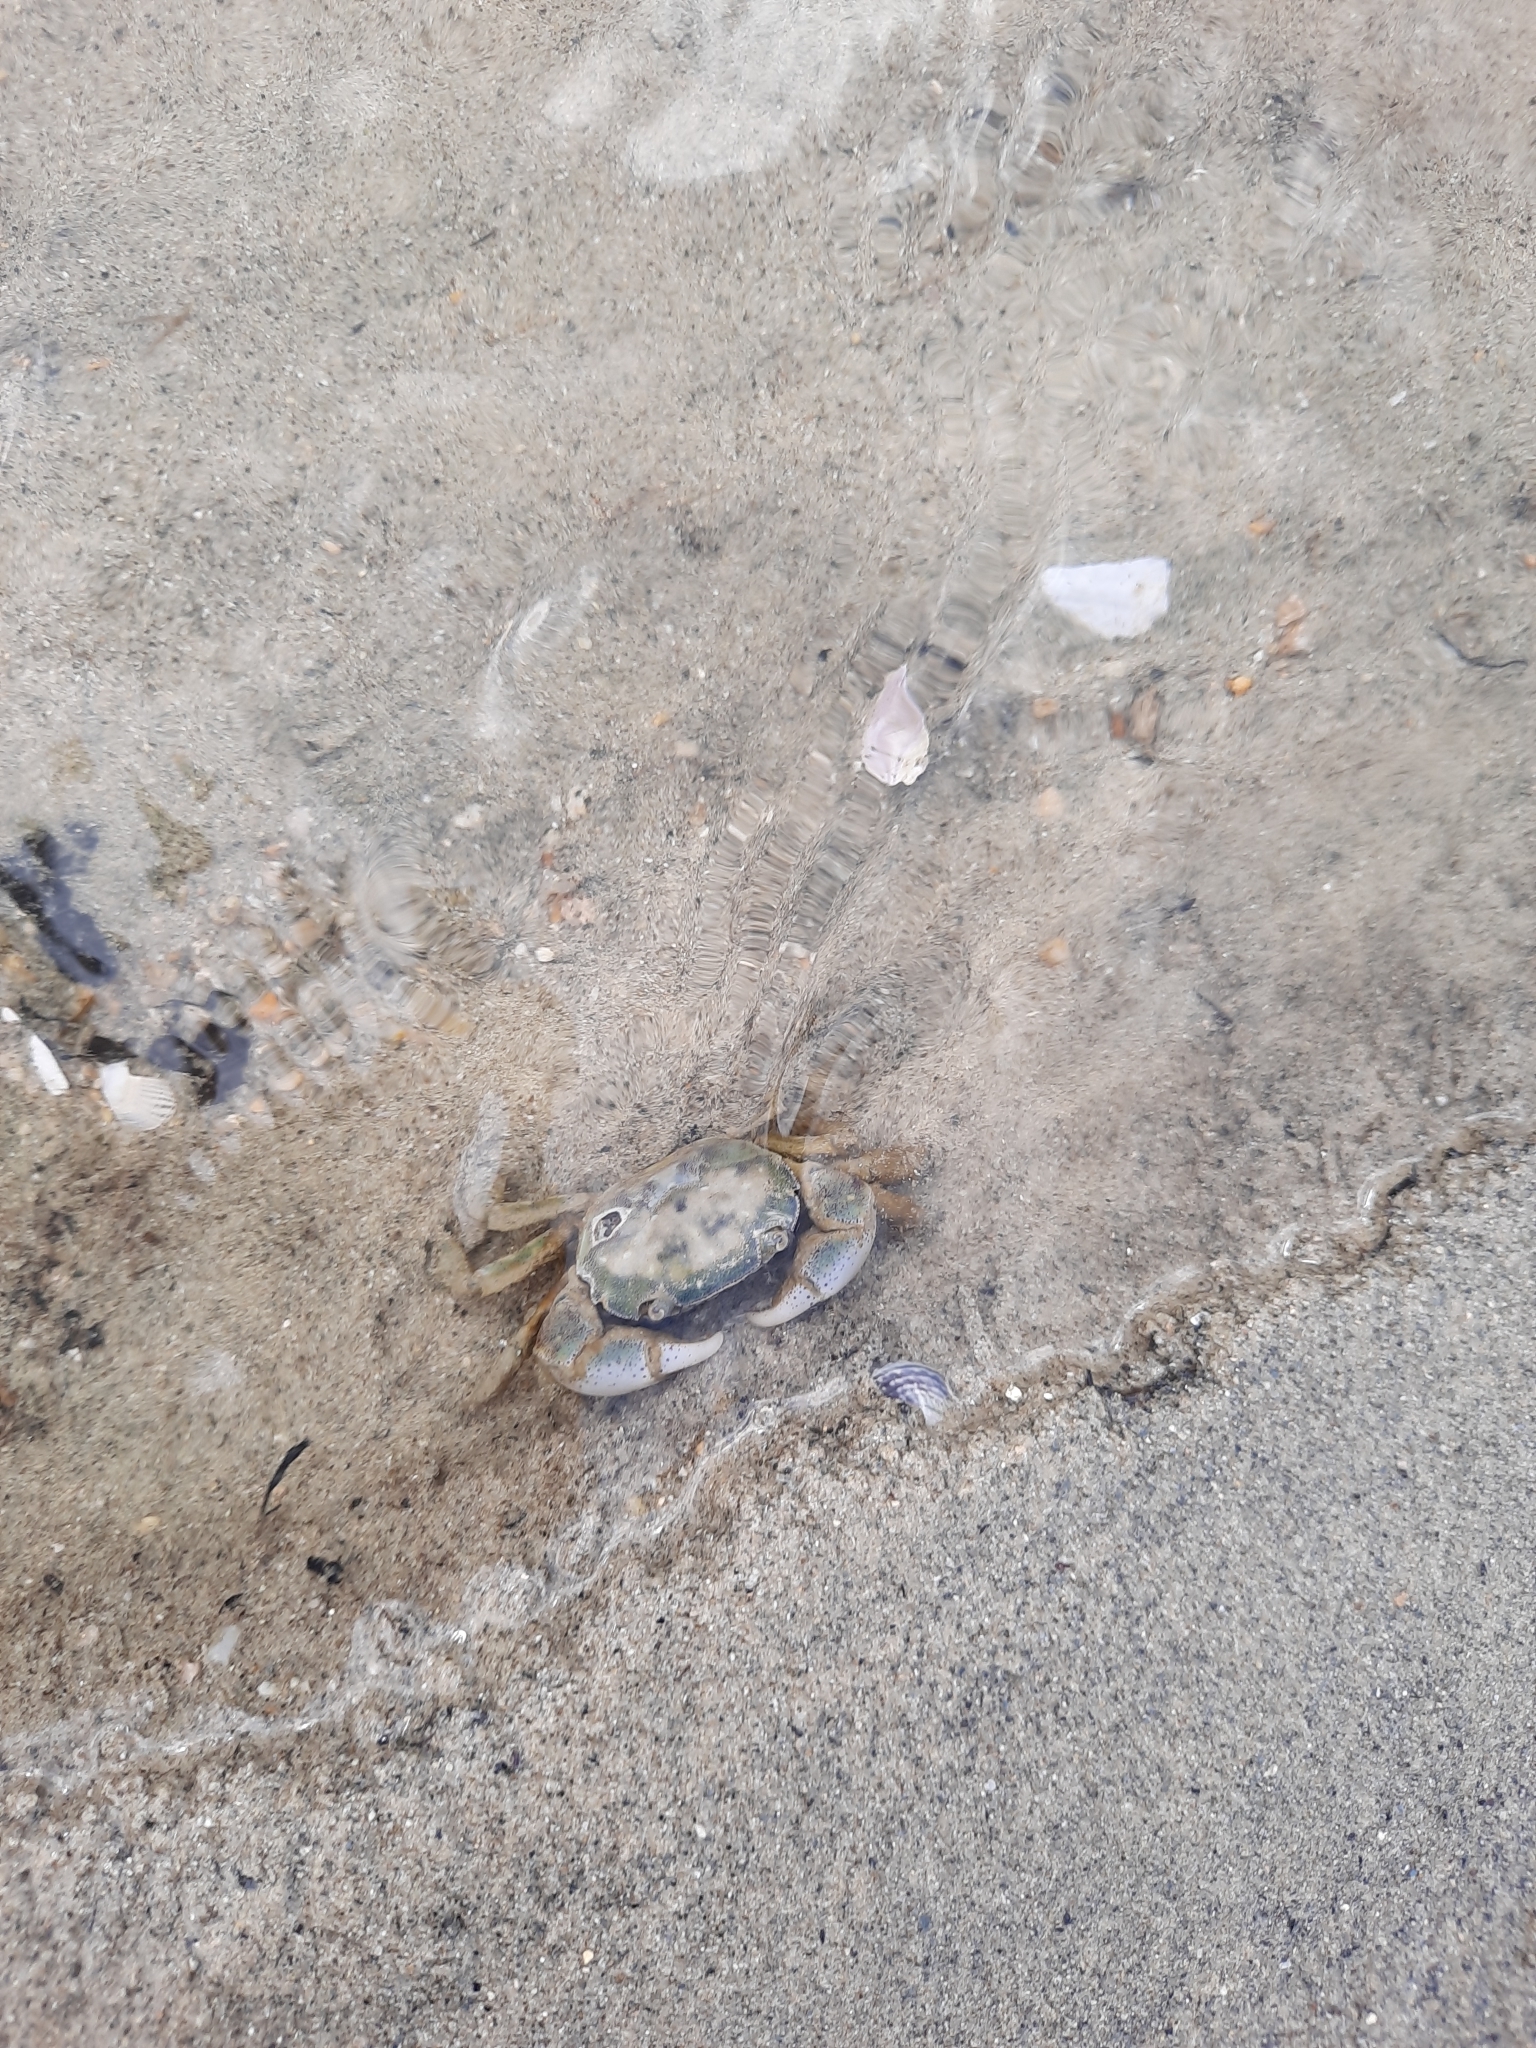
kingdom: Animalia
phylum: Arthropoda
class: Malacostraca
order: Decapoda
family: Varunidae
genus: Hemigrapsus
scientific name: Hemigrapsus crenulatus
